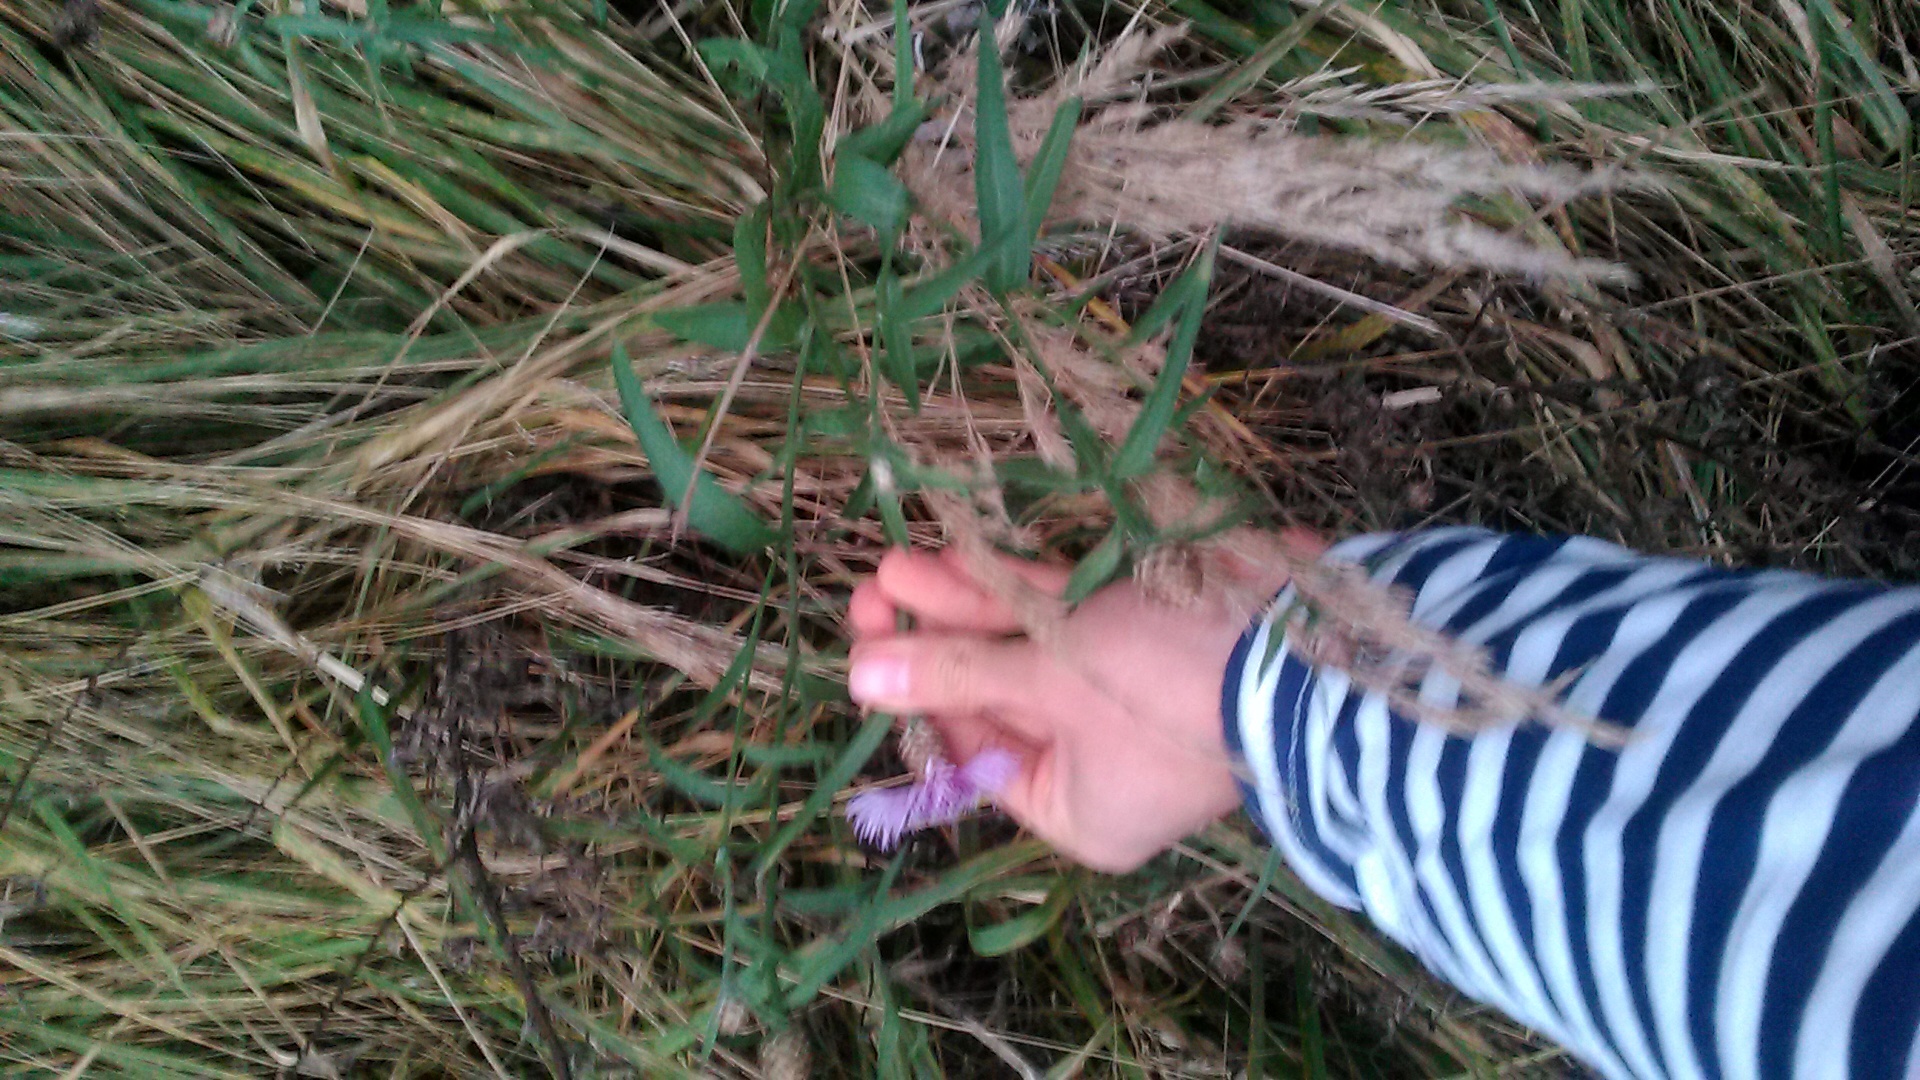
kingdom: Plantae
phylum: Tracheophyta
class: Magnoliopsida
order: Asterales
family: Asteraceae
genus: Centaurea
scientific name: Centaurea jacea
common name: Brown knapweed
